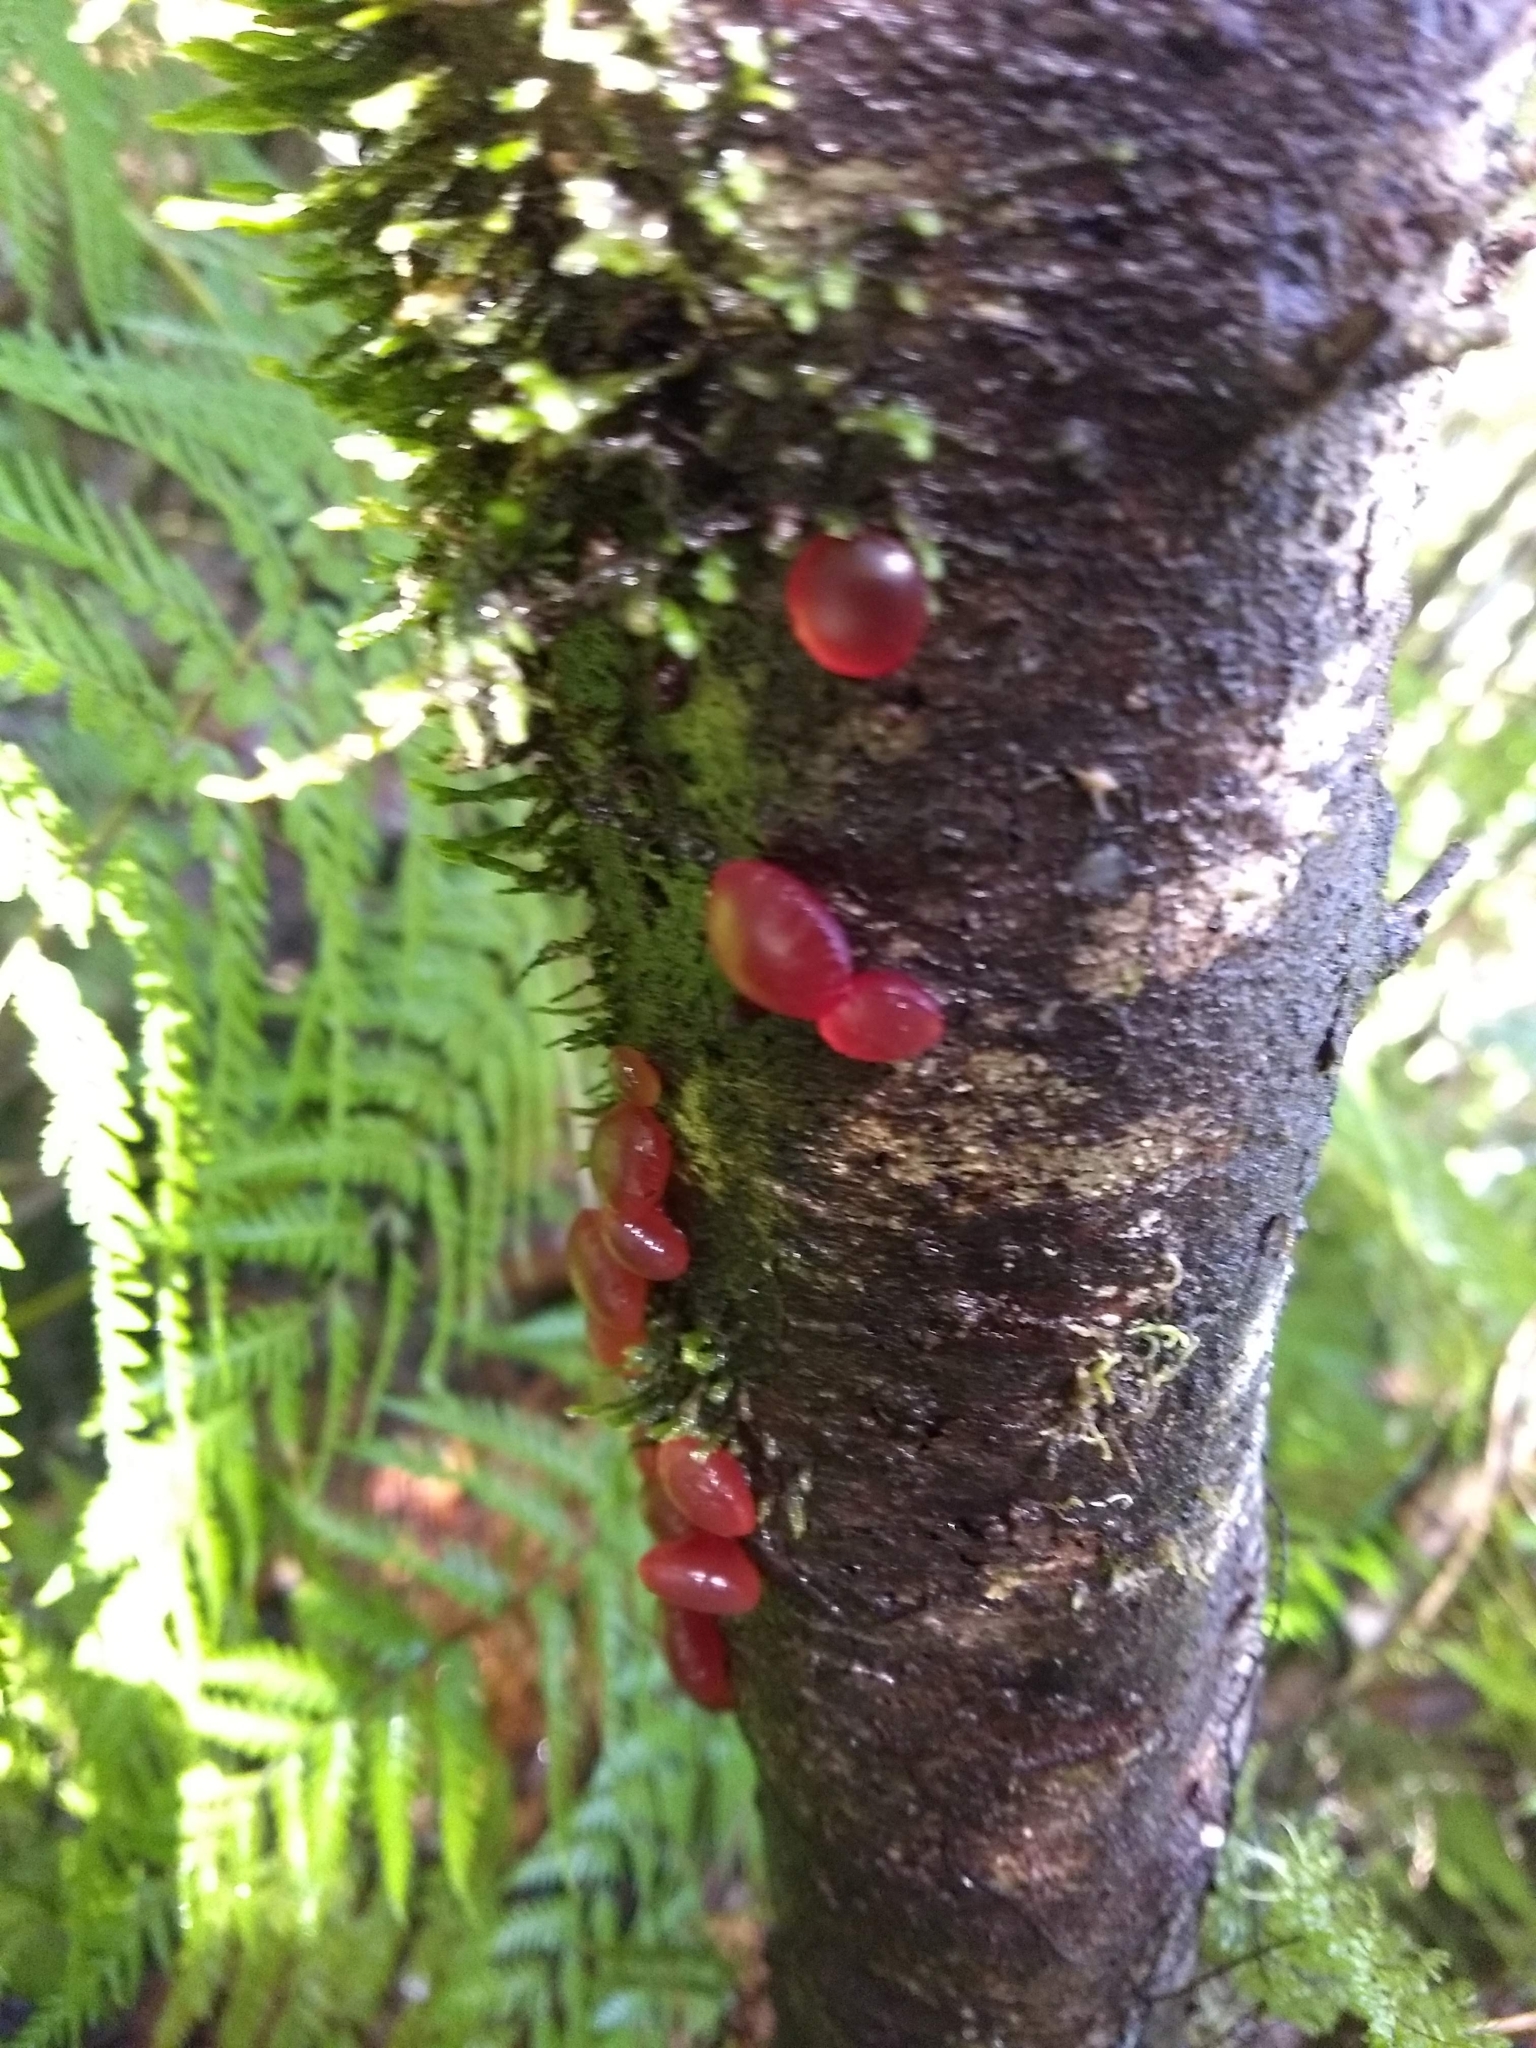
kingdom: Fungi
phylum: Basidiomycota
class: Dacrymycetes
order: Dacrymycetales
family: Dacrymycetaceae
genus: Guepiniopsis
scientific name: Guepiniopsis alpina
